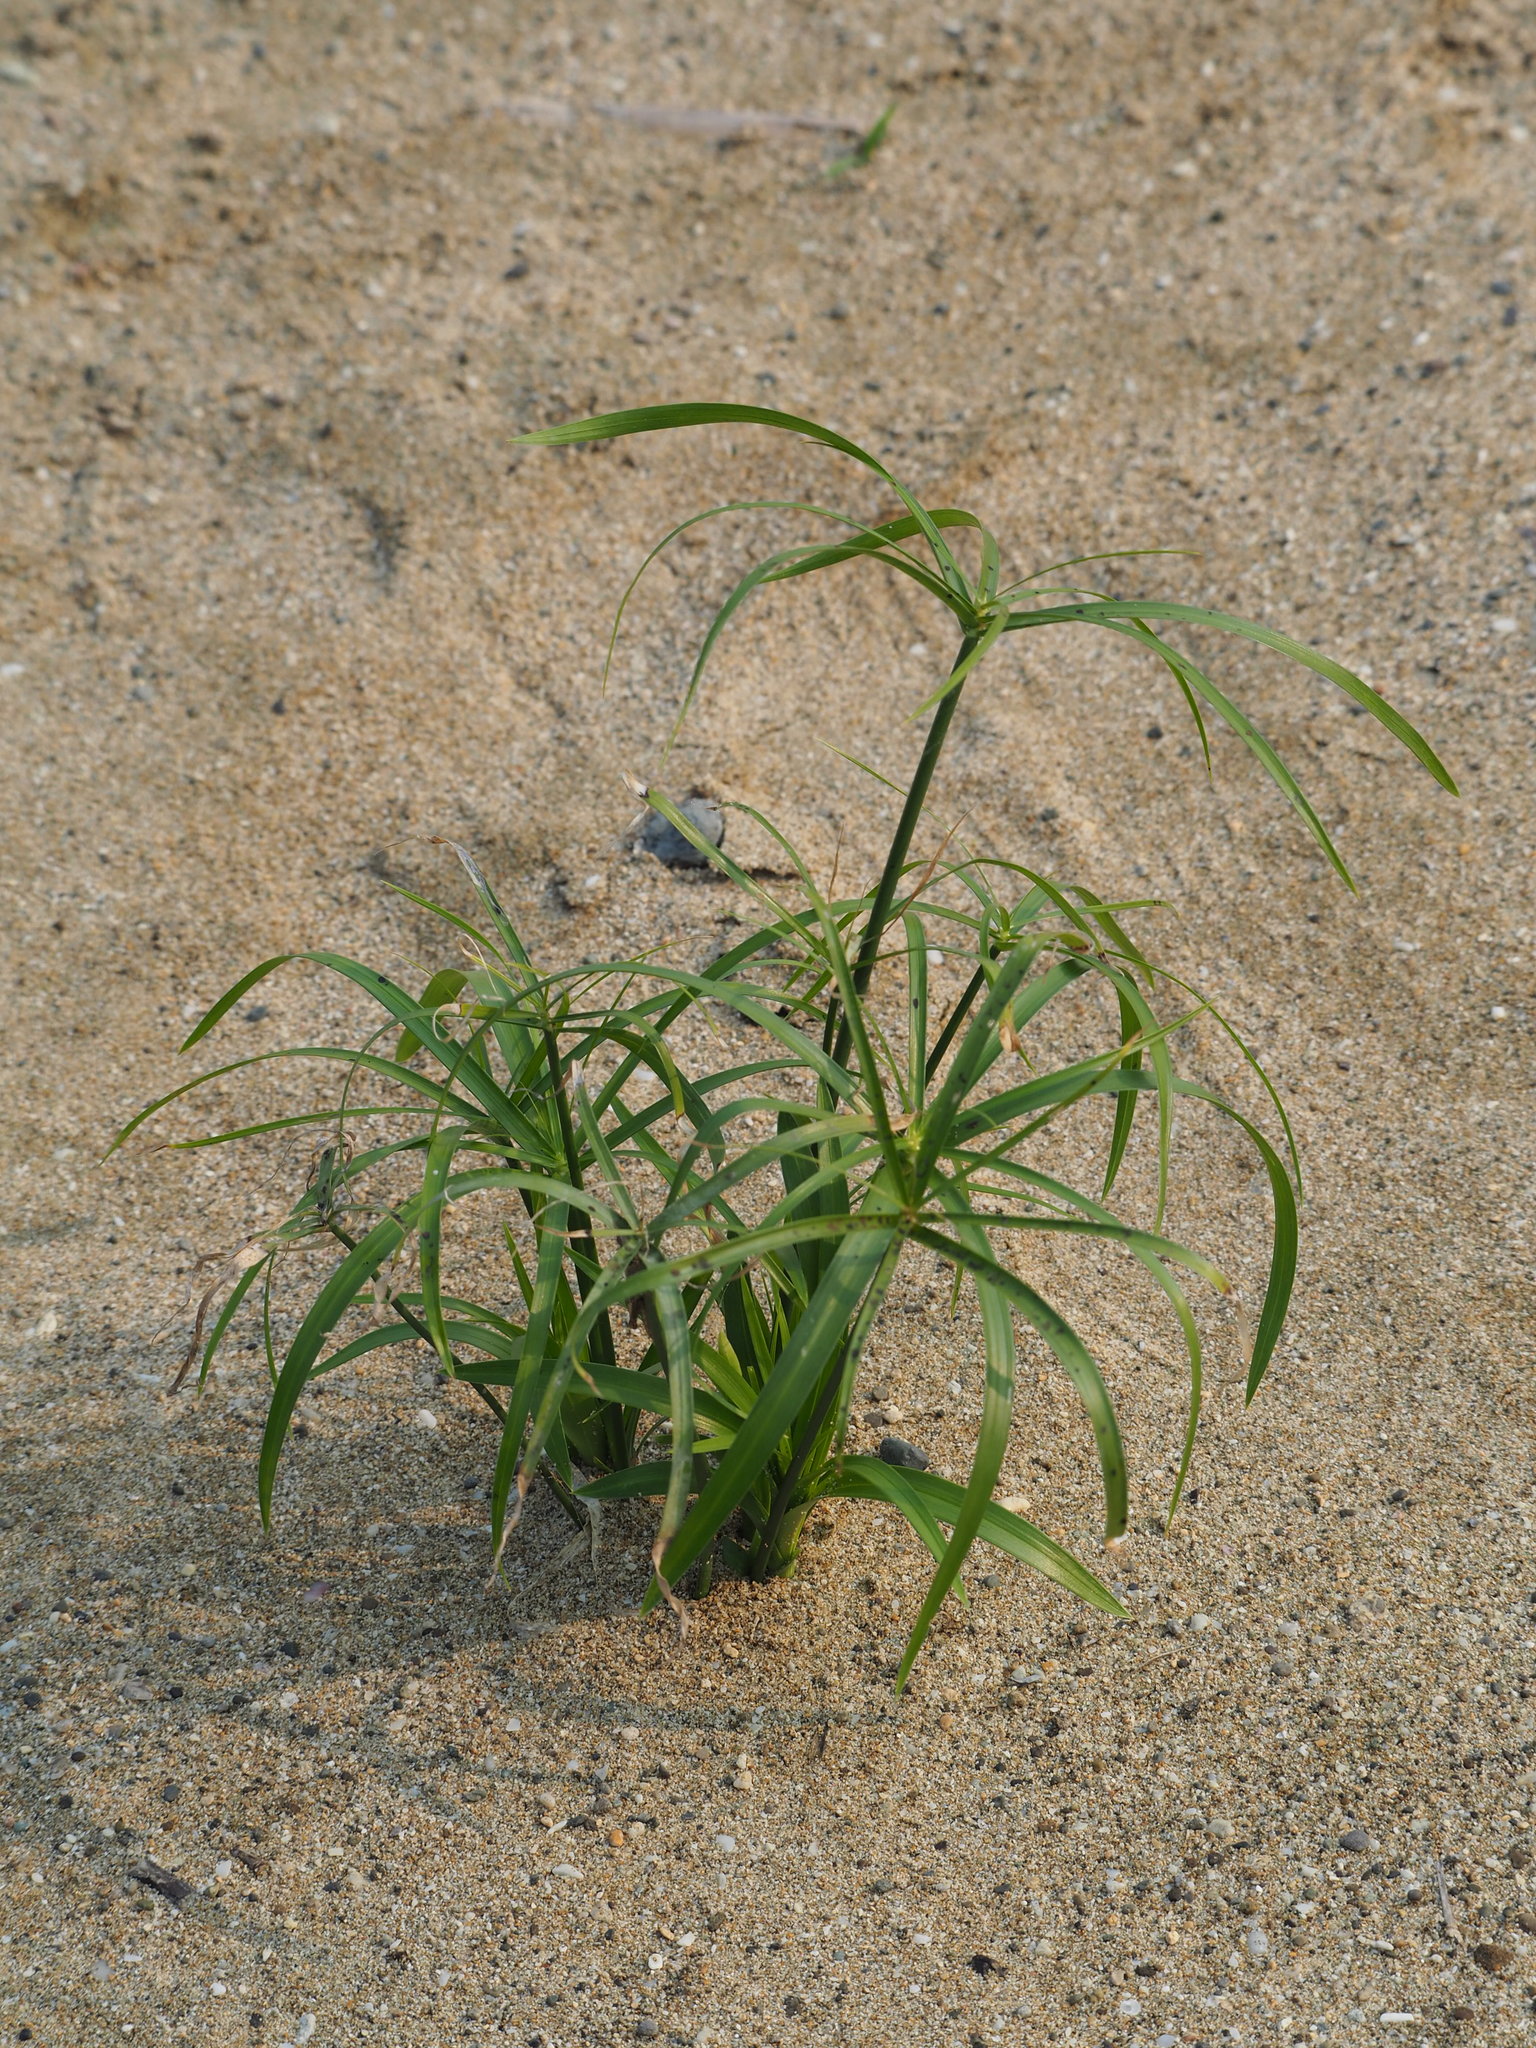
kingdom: Plantae
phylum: Tracheophyta
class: Liliopsida
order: Poales
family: Cyperaceae
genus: Cyperus
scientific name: Cyperus alternifolius
